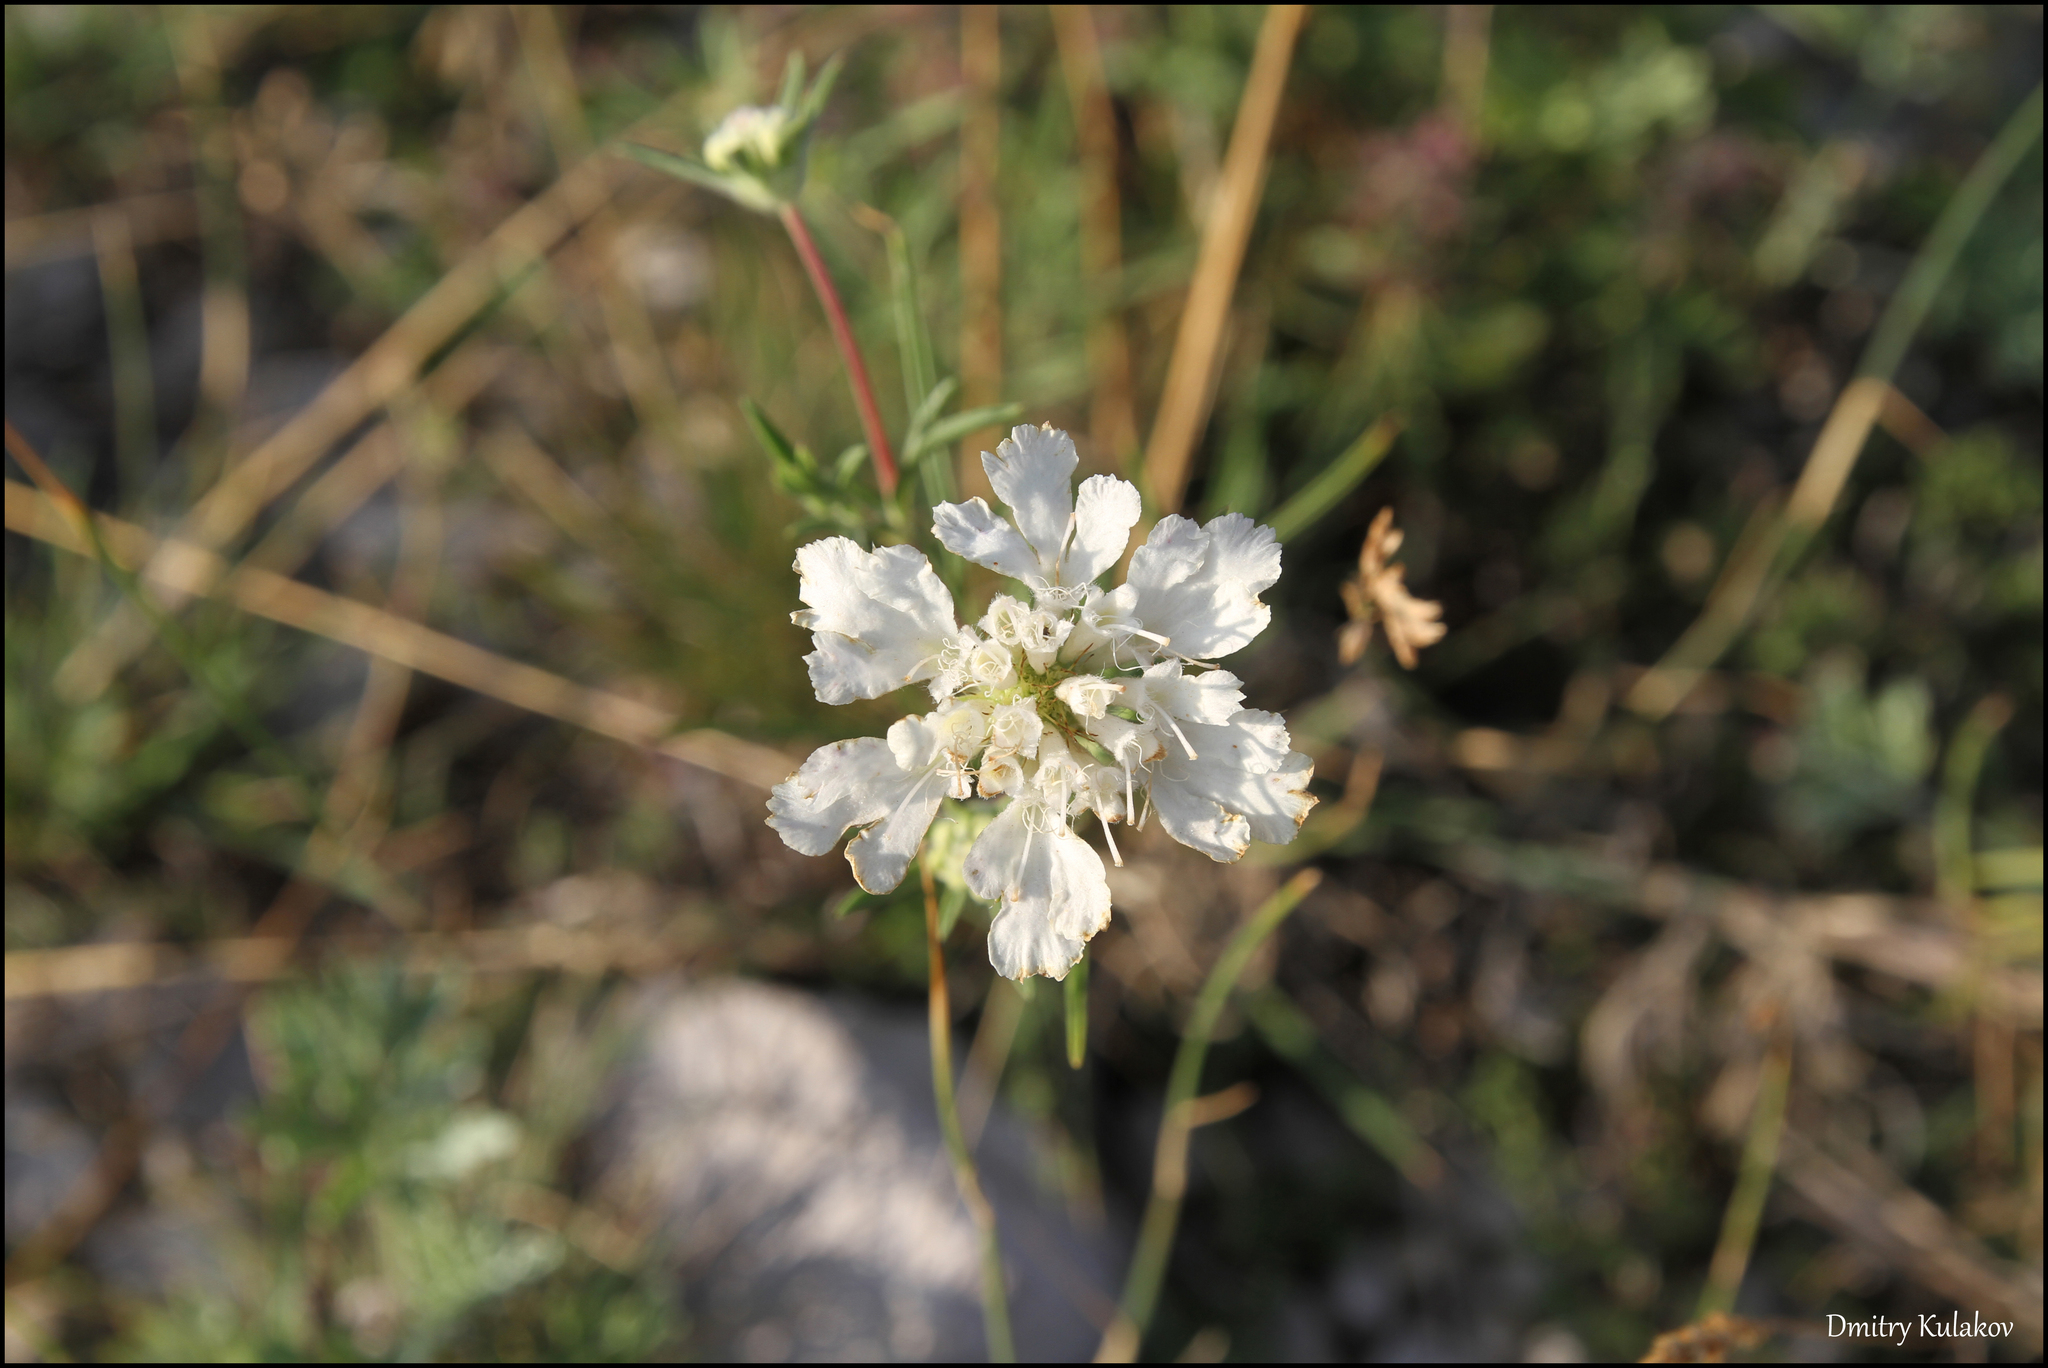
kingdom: Plantae
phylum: Tracheophyta
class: Magnoliopsida
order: Dipsacales
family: Caprifoliaceae
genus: Lomelosia
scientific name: Lomelosia argentea
